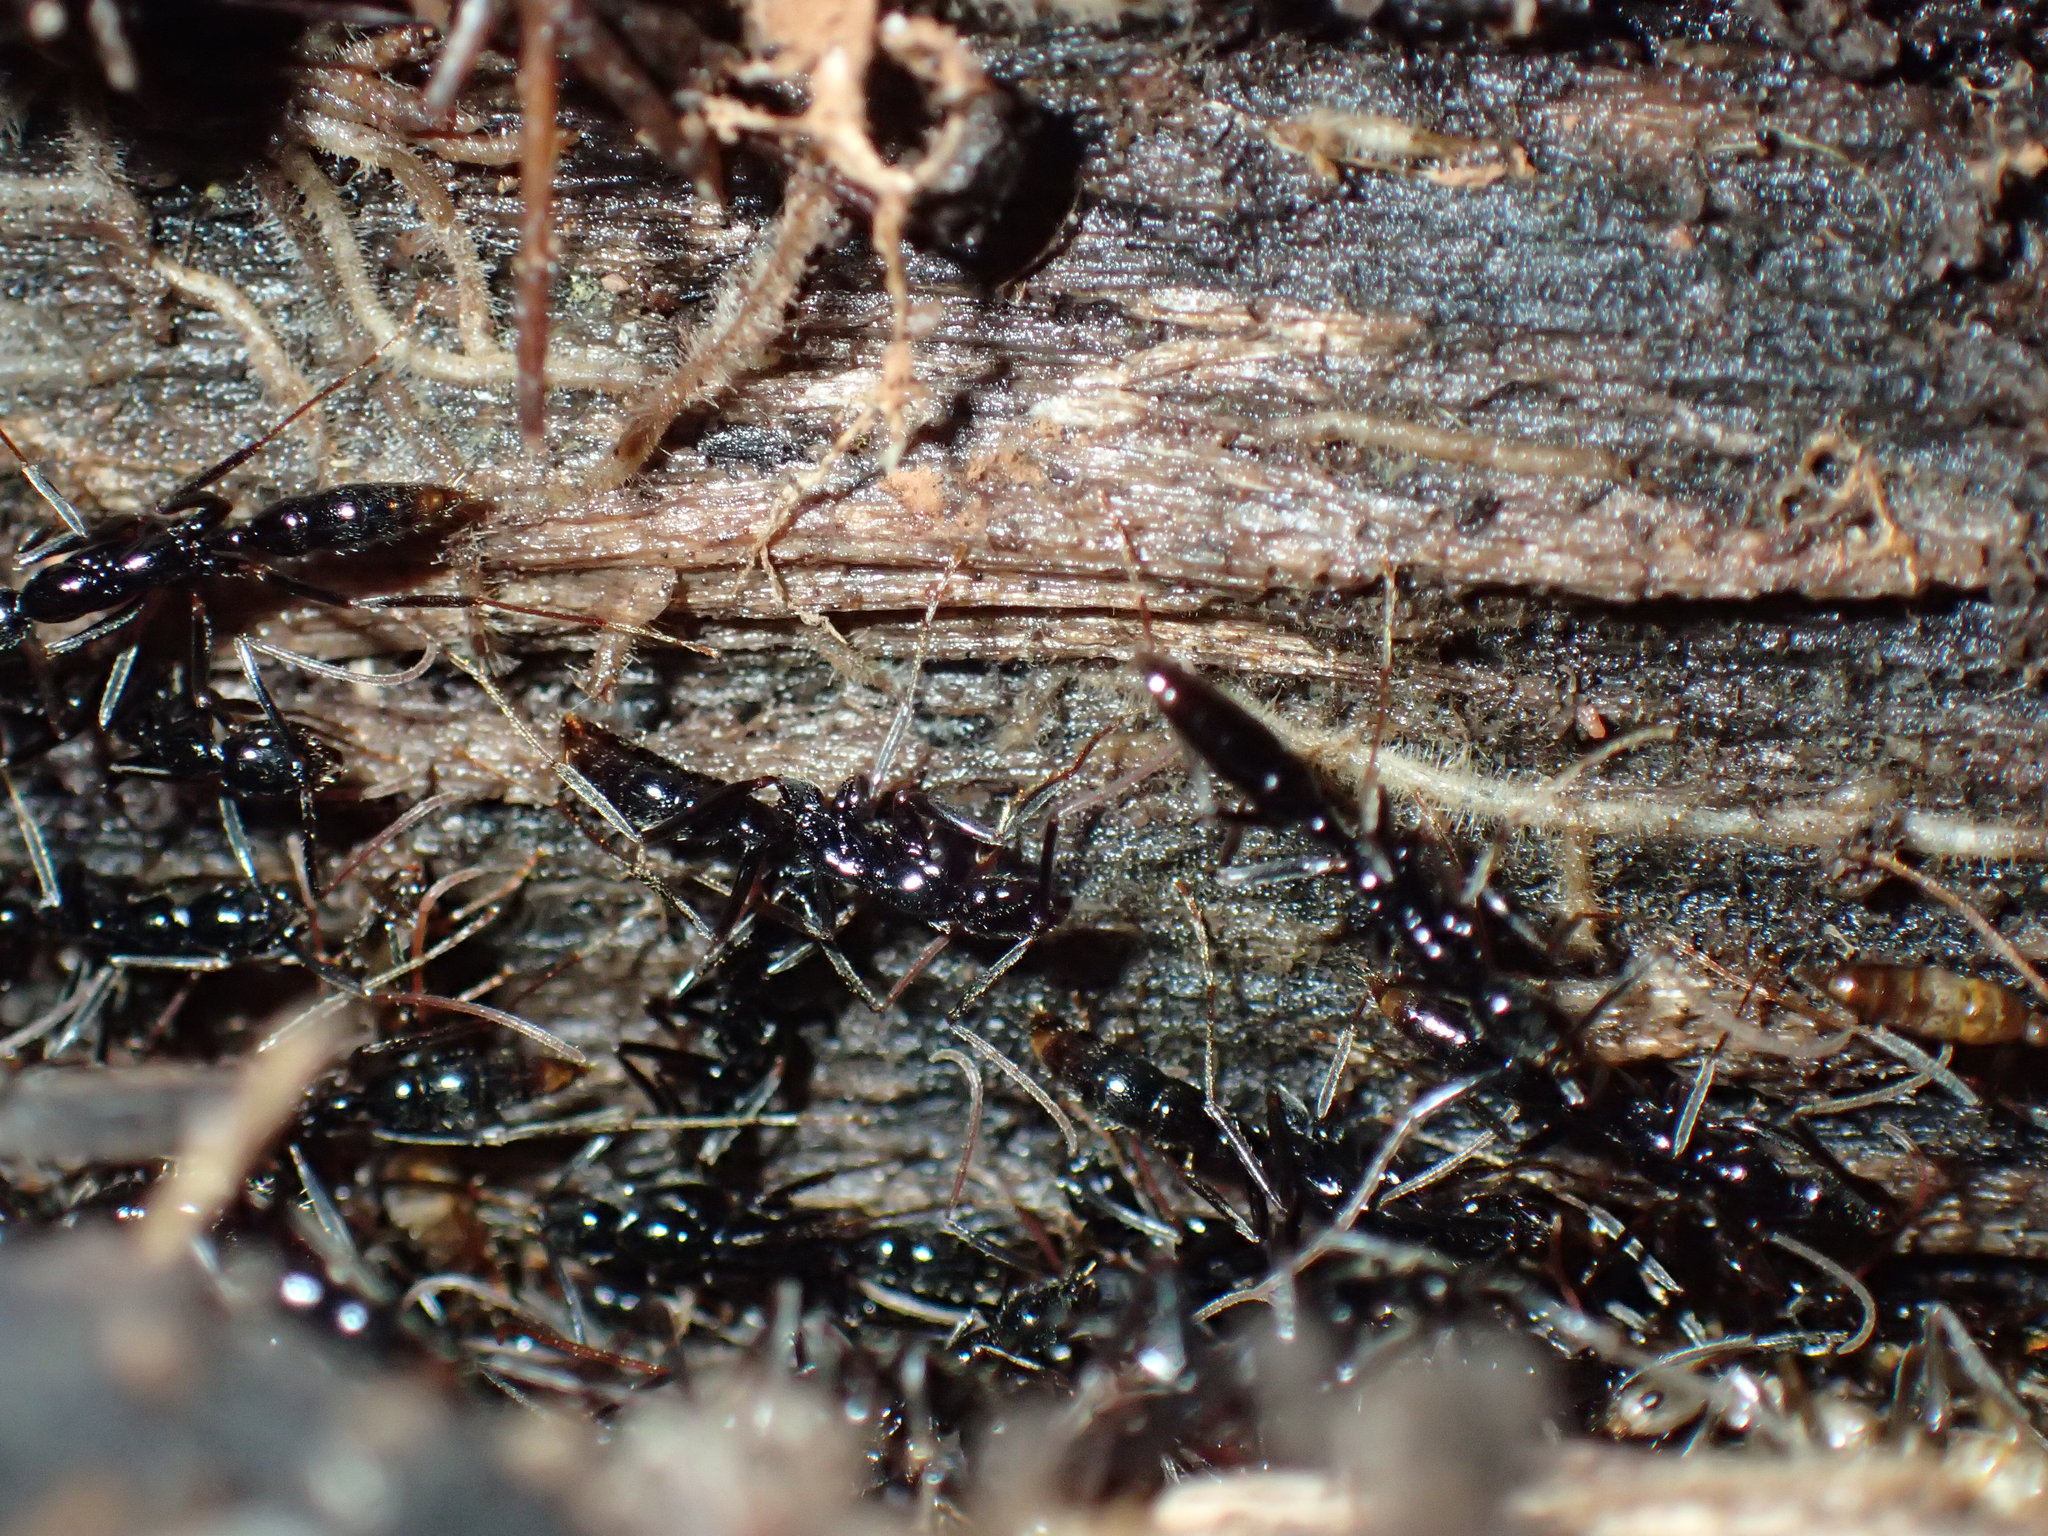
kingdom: Animalia
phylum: Arthropoda
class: Insecta
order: Hymenoptera
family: Formicidae
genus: Leptogenys
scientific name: Leptogenys intermedia
